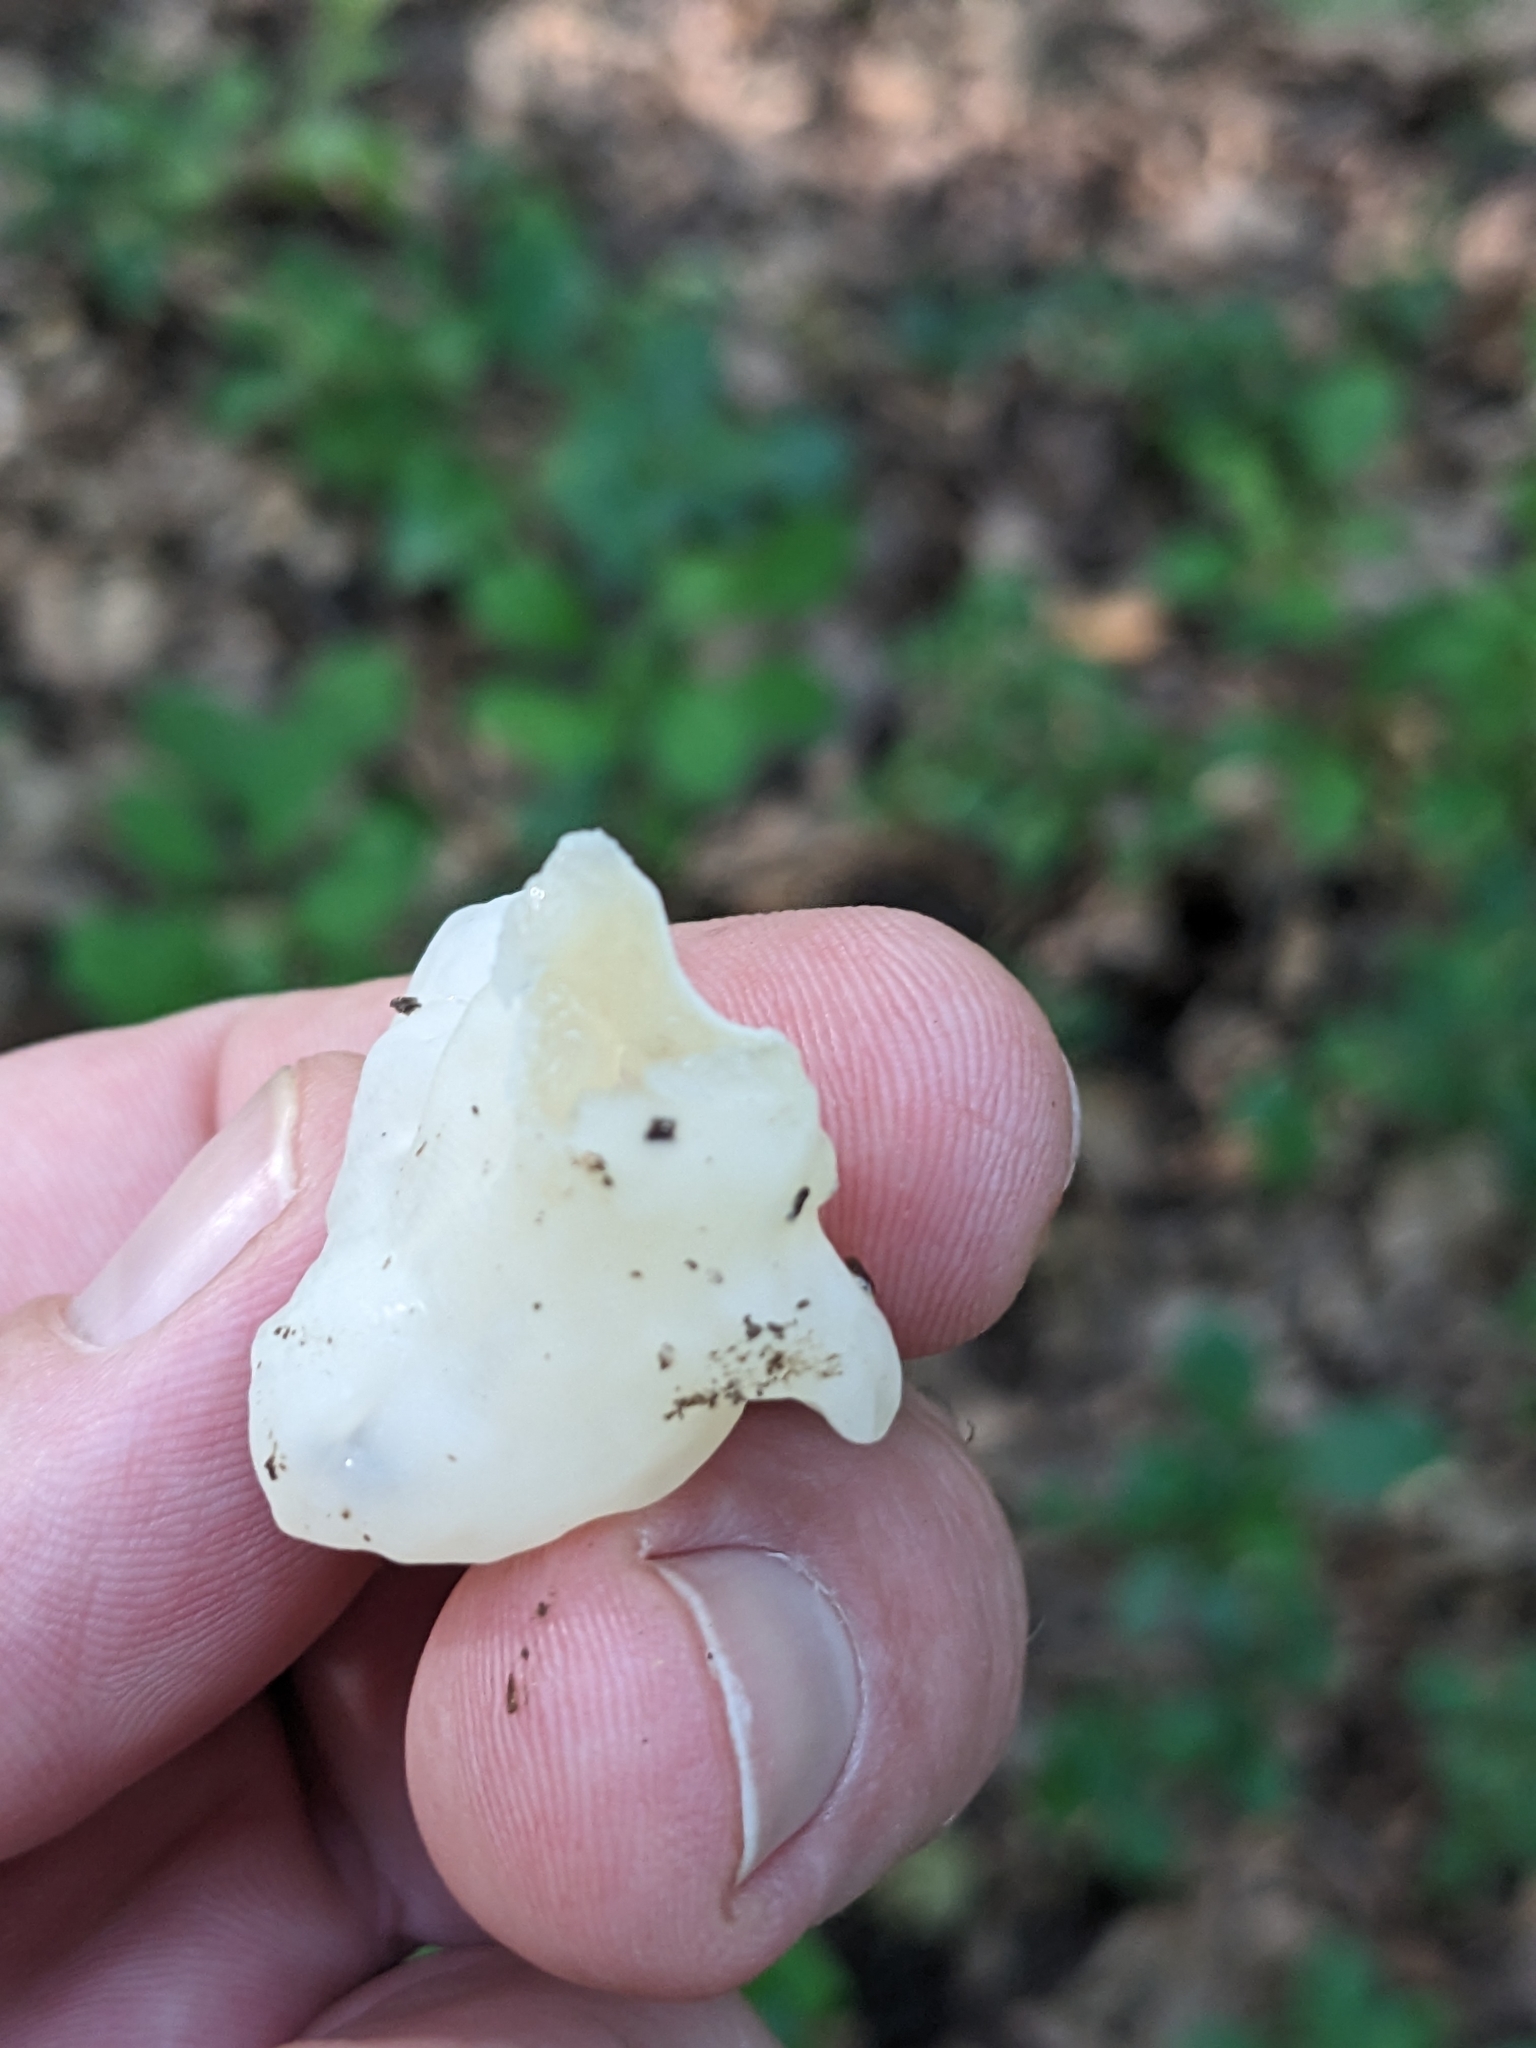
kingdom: Fungi
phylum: Basidiomycota
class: Agaricomycetes
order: Sebacinales
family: Sebacinaceae
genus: Helvellosebacina
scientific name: Helvellosebacina concrescens
